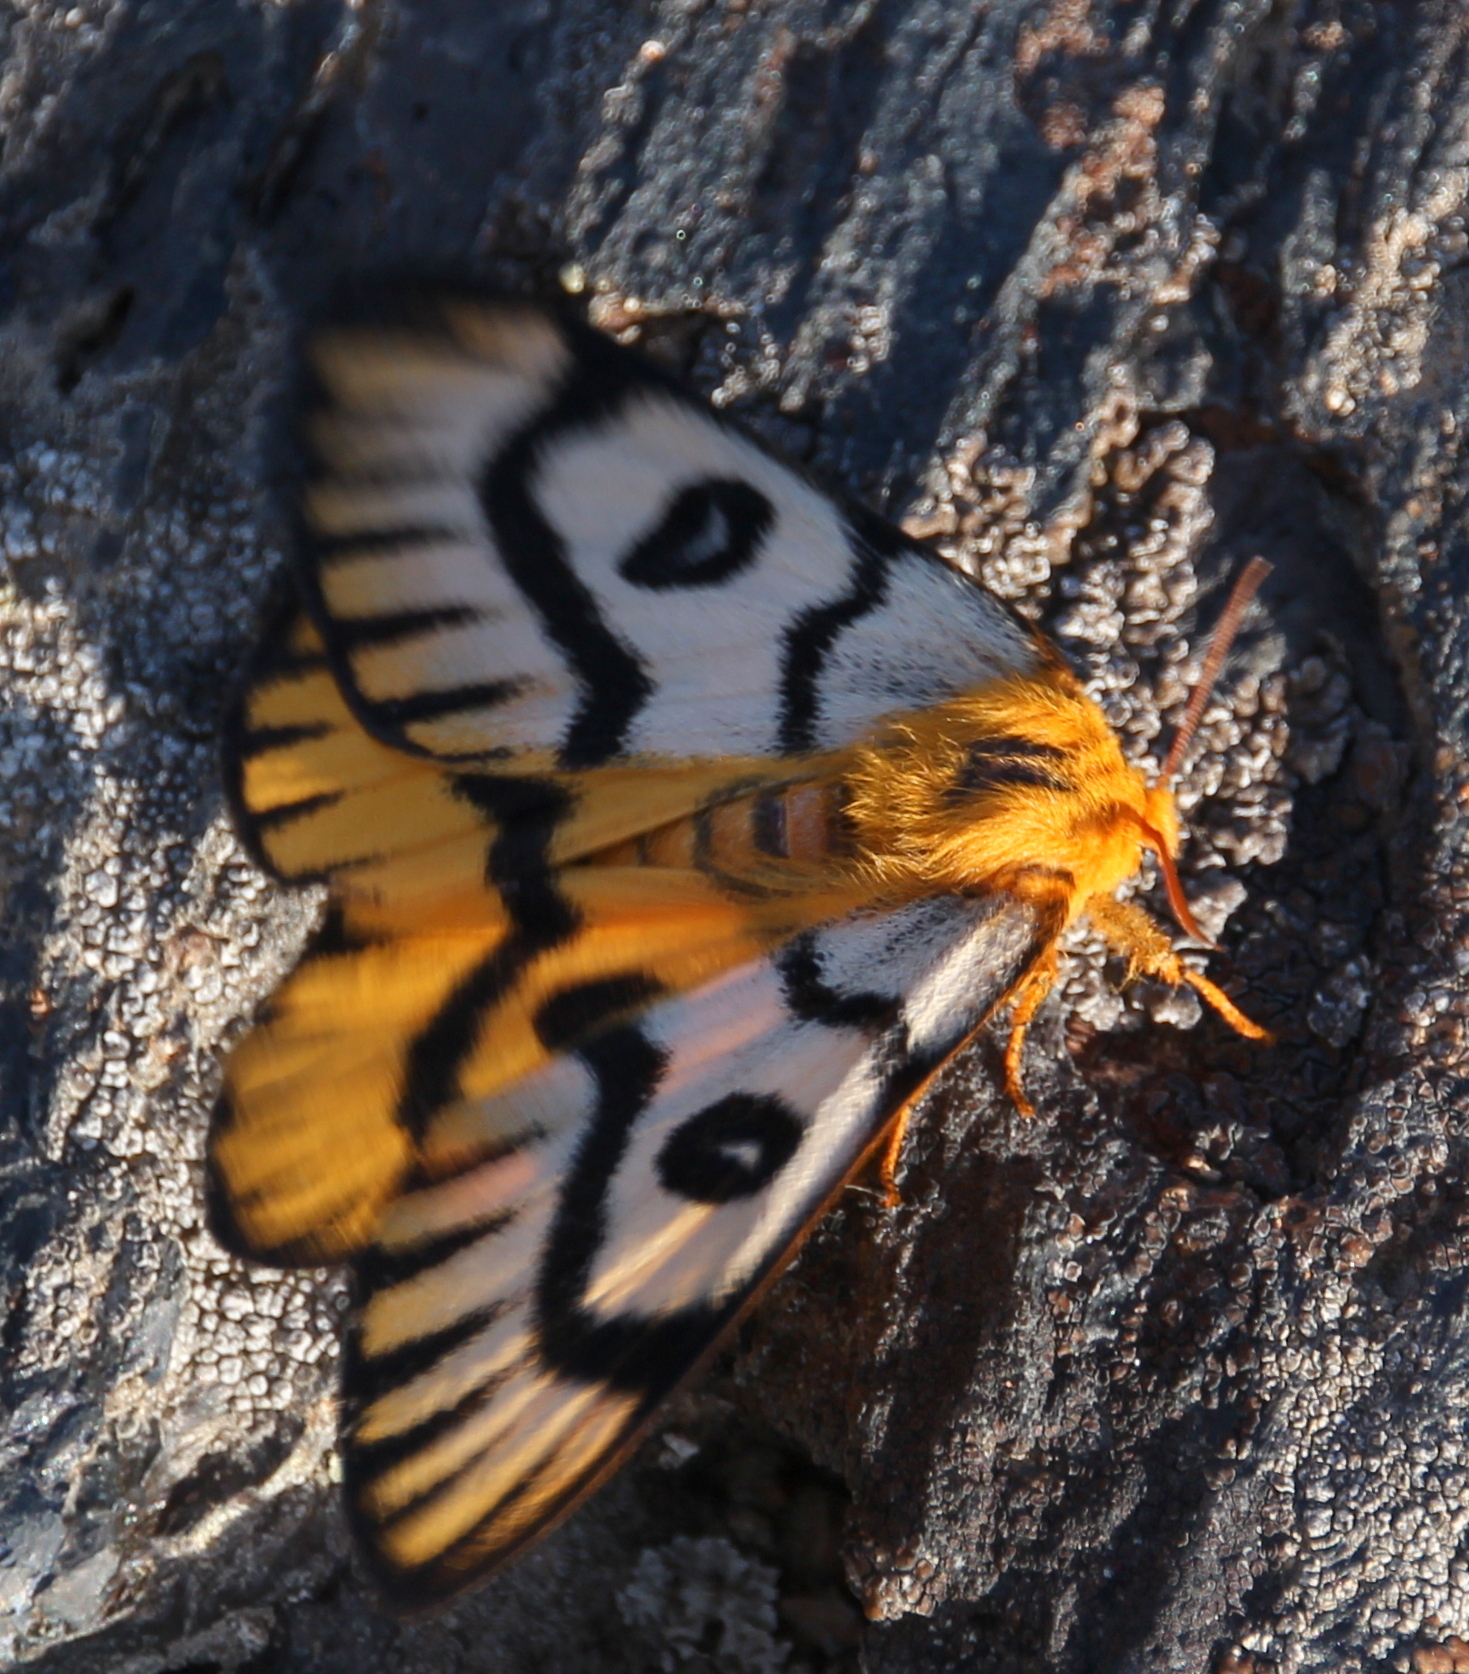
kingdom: Animalia
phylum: Arthropoda
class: Insecta
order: Lepidoptera
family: Saturniidae
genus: Hemileuca
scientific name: Hemileuca nutalli
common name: Nuttall's sheepmoth
